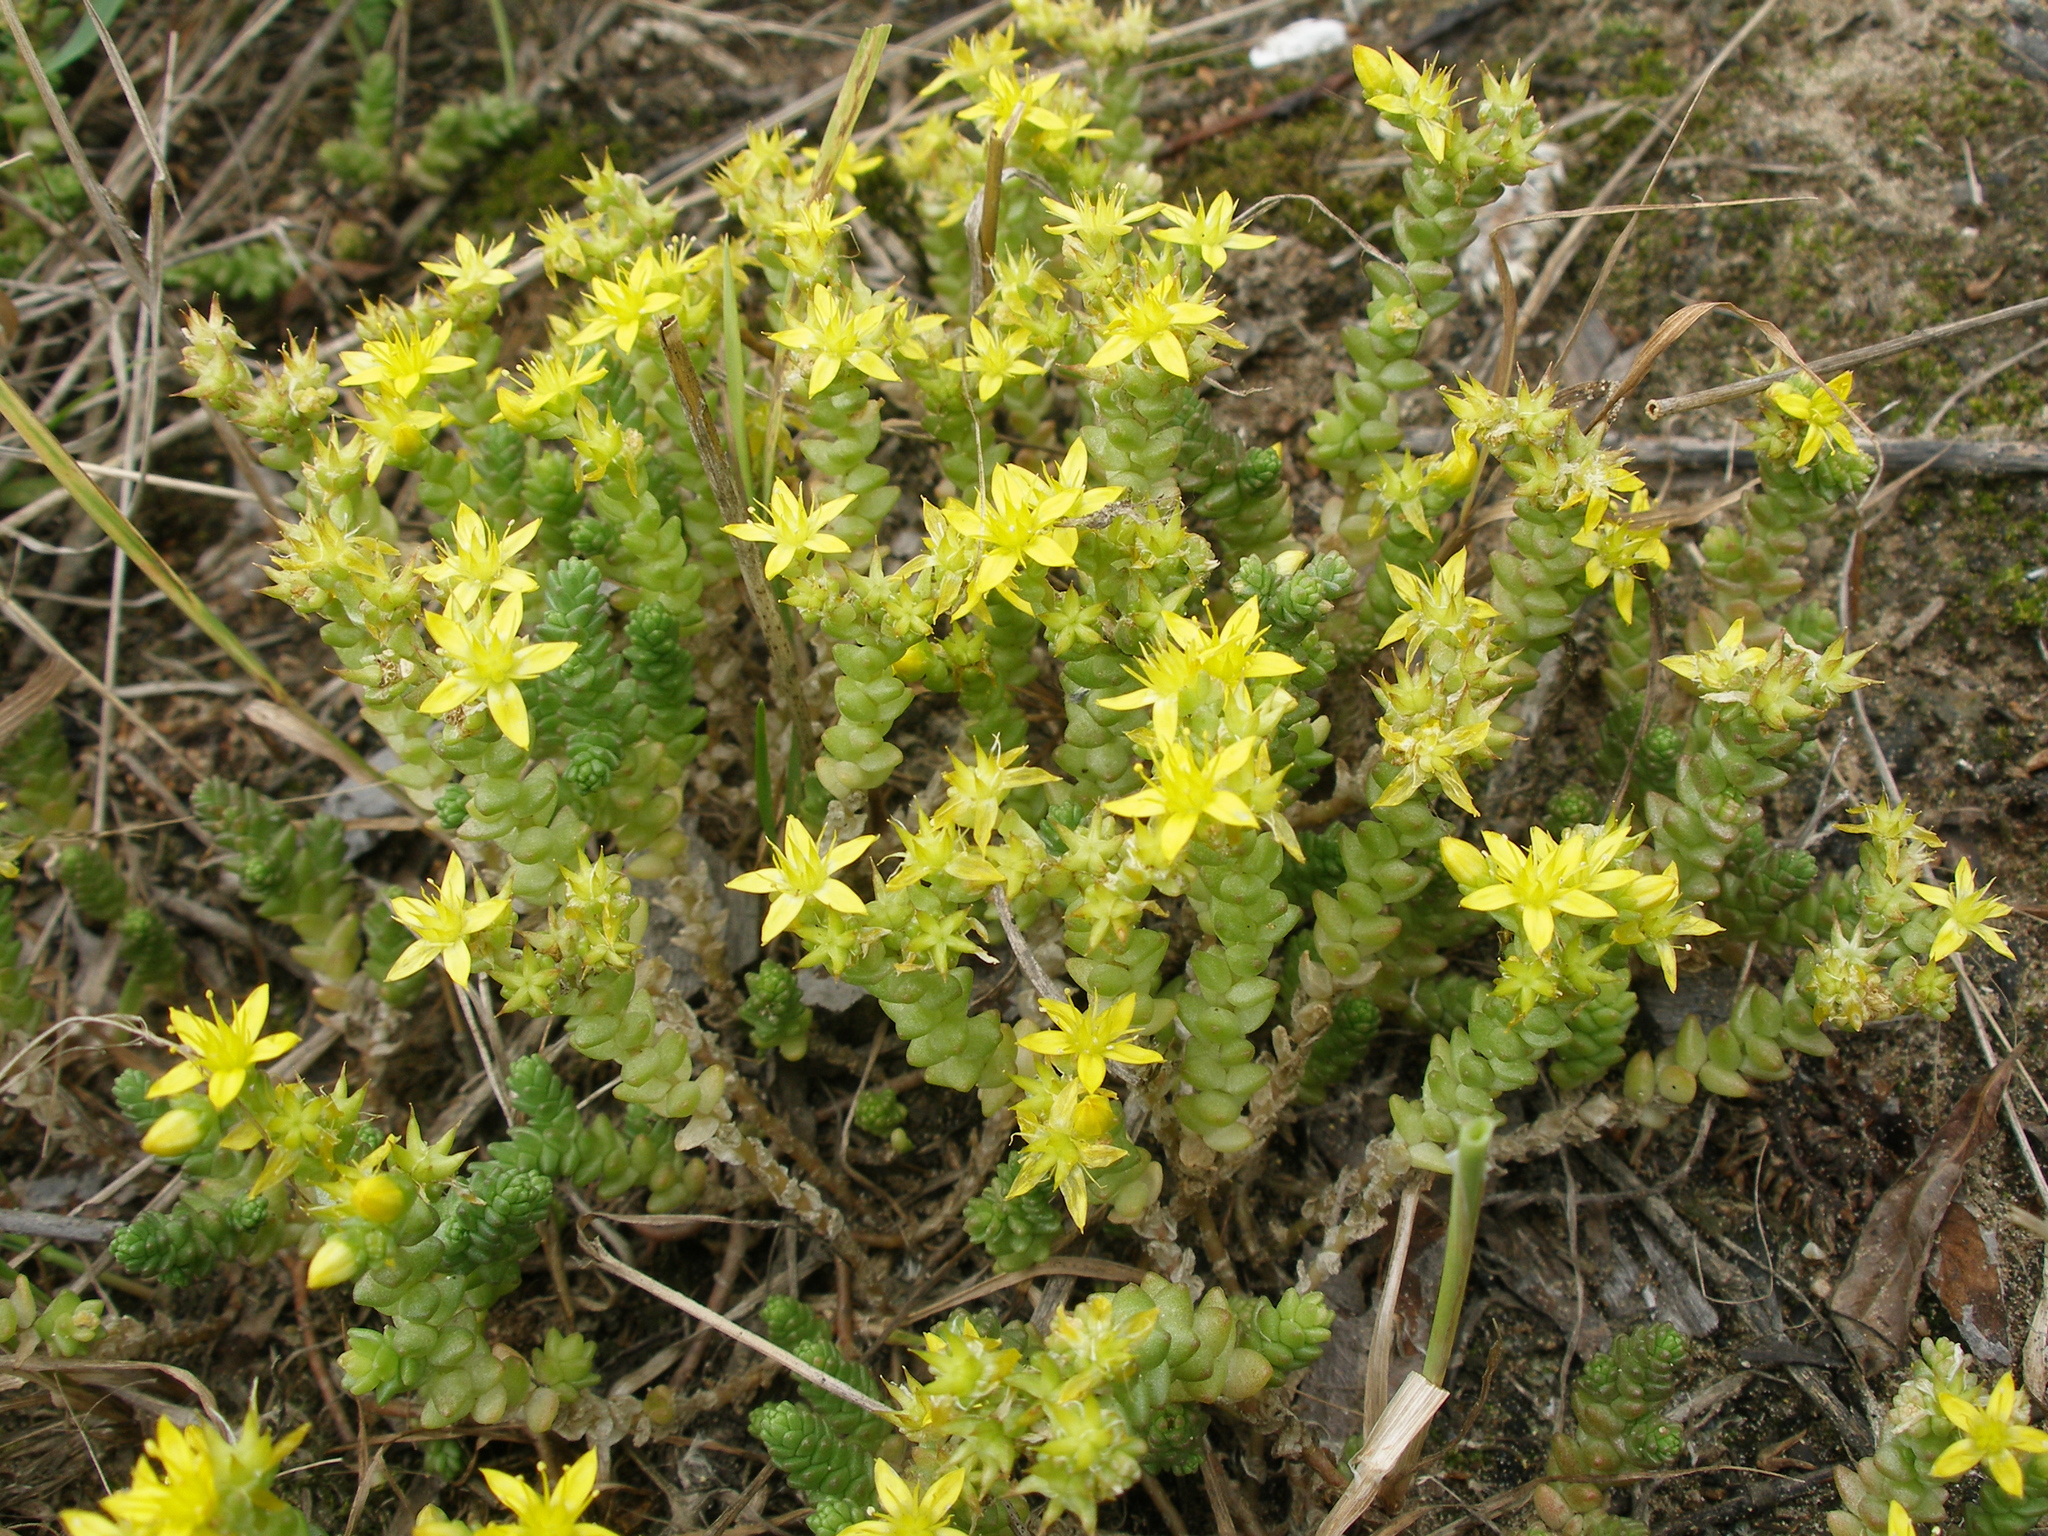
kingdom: Plantae
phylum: Tracheophyta
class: Magnoliopsida
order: Saxifragales
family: Crassulaceae
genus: Sedum
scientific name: Sedum acre
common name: Biting stonecrop
